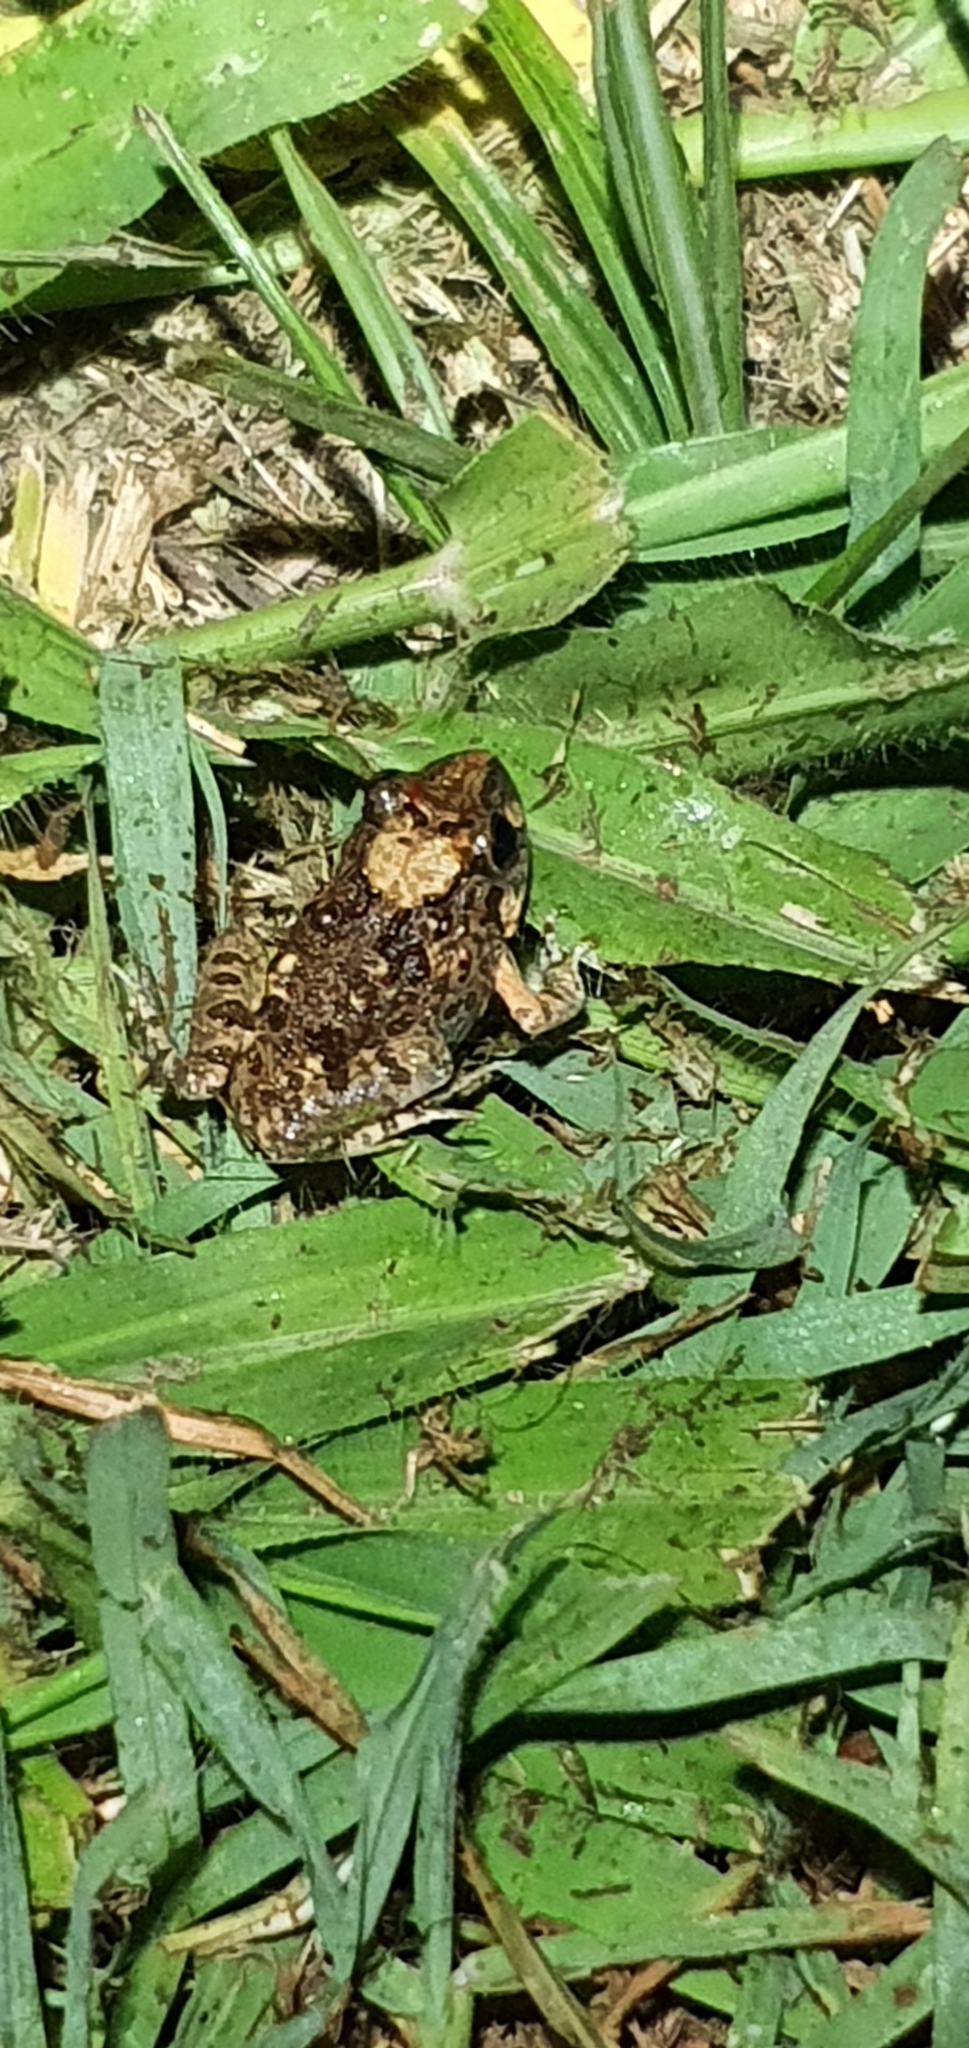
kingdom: Animalia
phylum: Chordata
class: Amphibia
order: Anura
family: Limnodynastidae
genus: Platyplectrum
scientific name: Platyplectrum ornatum
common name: Ornate burrowing frog
